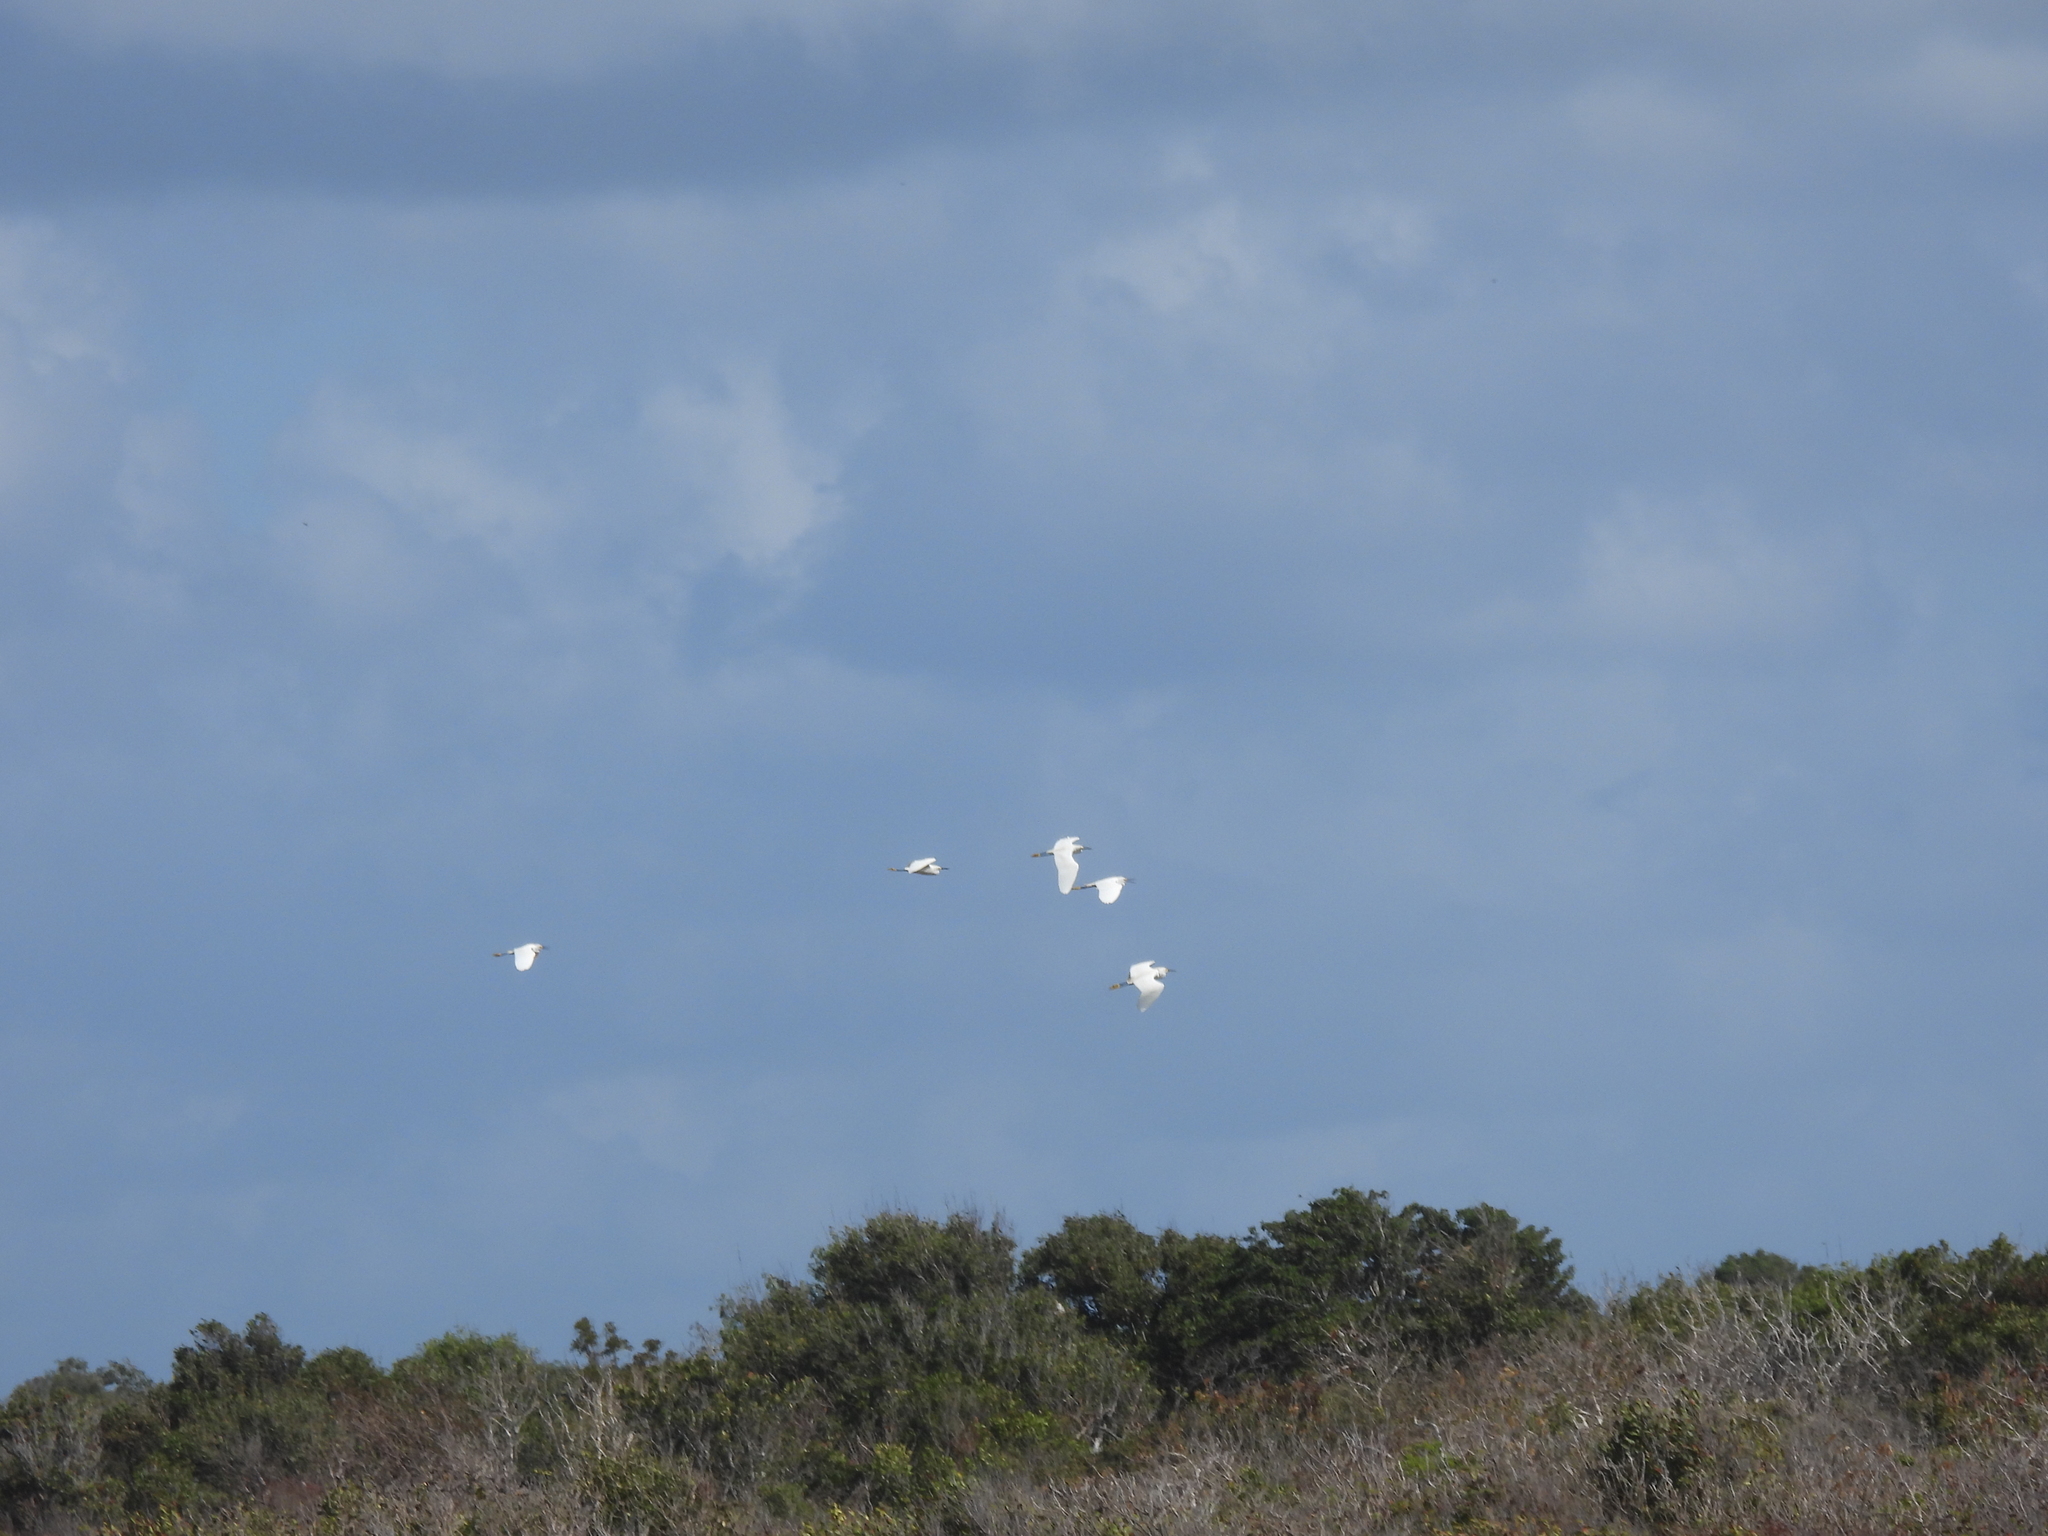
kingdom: Animalia
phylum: Chordata
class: Aves
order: Pelecaniformes
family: Ardeidae
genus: Egretta
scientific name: Egretta thula
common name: Snowy egret
